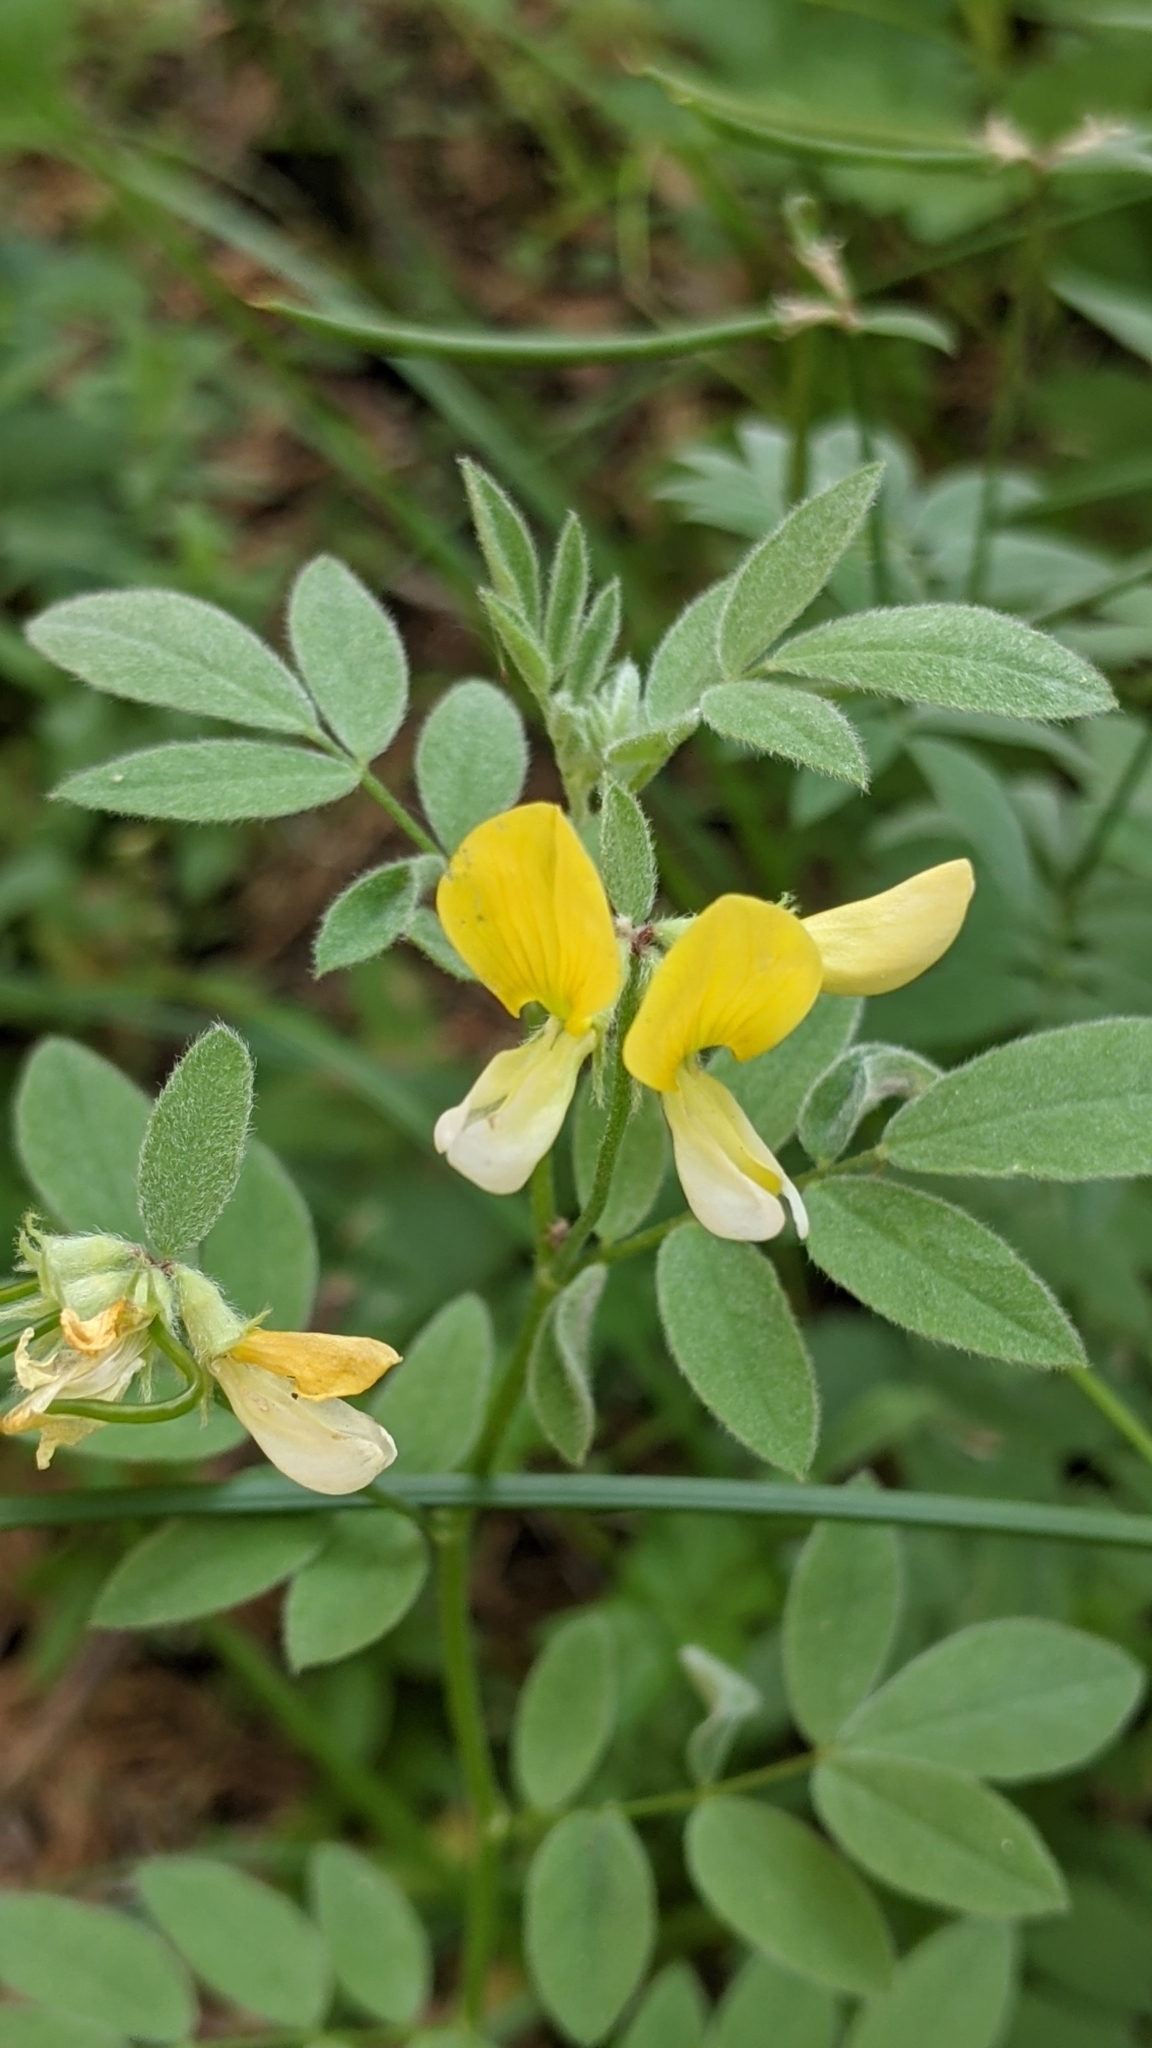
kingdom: Plantae
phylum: Tracheophyta
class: Magnoliopsida
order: Fabales
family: Fabaceae
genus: Hosackia
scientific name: Hosackia oblongifolia
